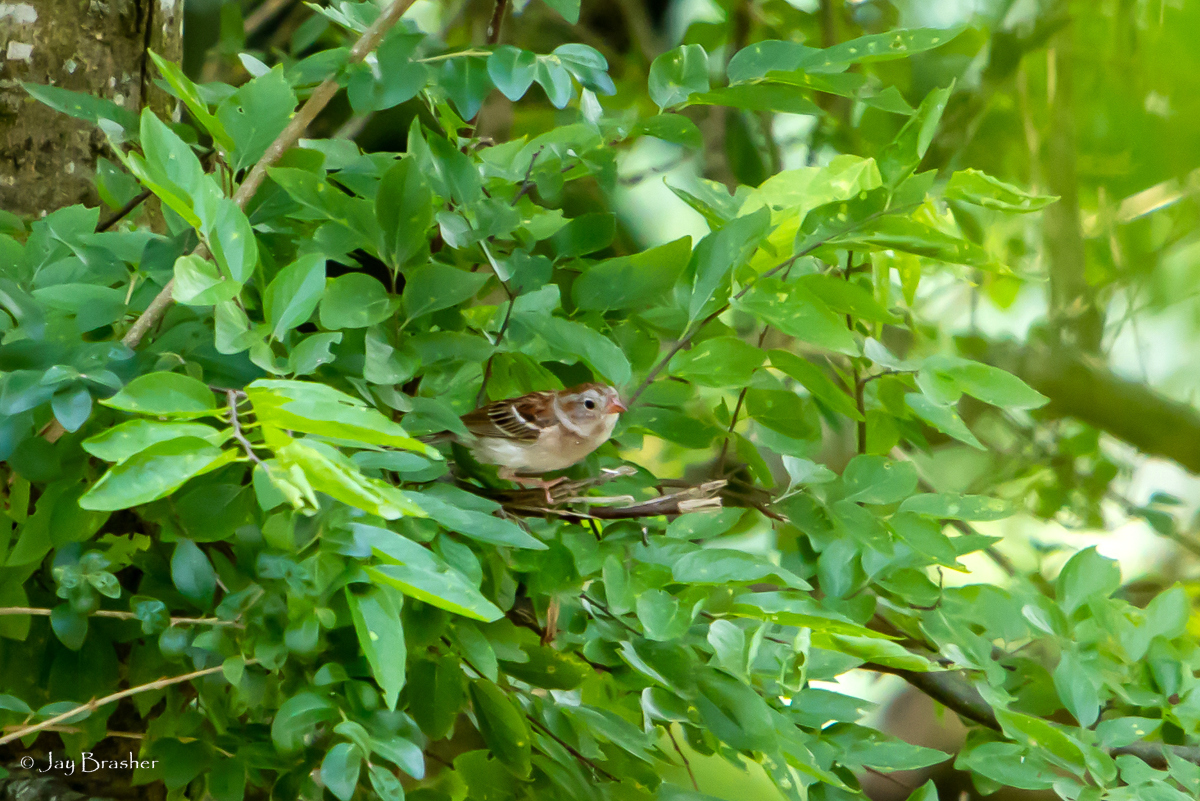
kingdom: Animalia
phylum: Chordata
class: Aves
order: Passeriformes
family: Passerellidae
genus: Spizella
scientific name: Spizella pusilla
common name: Field sparrow
